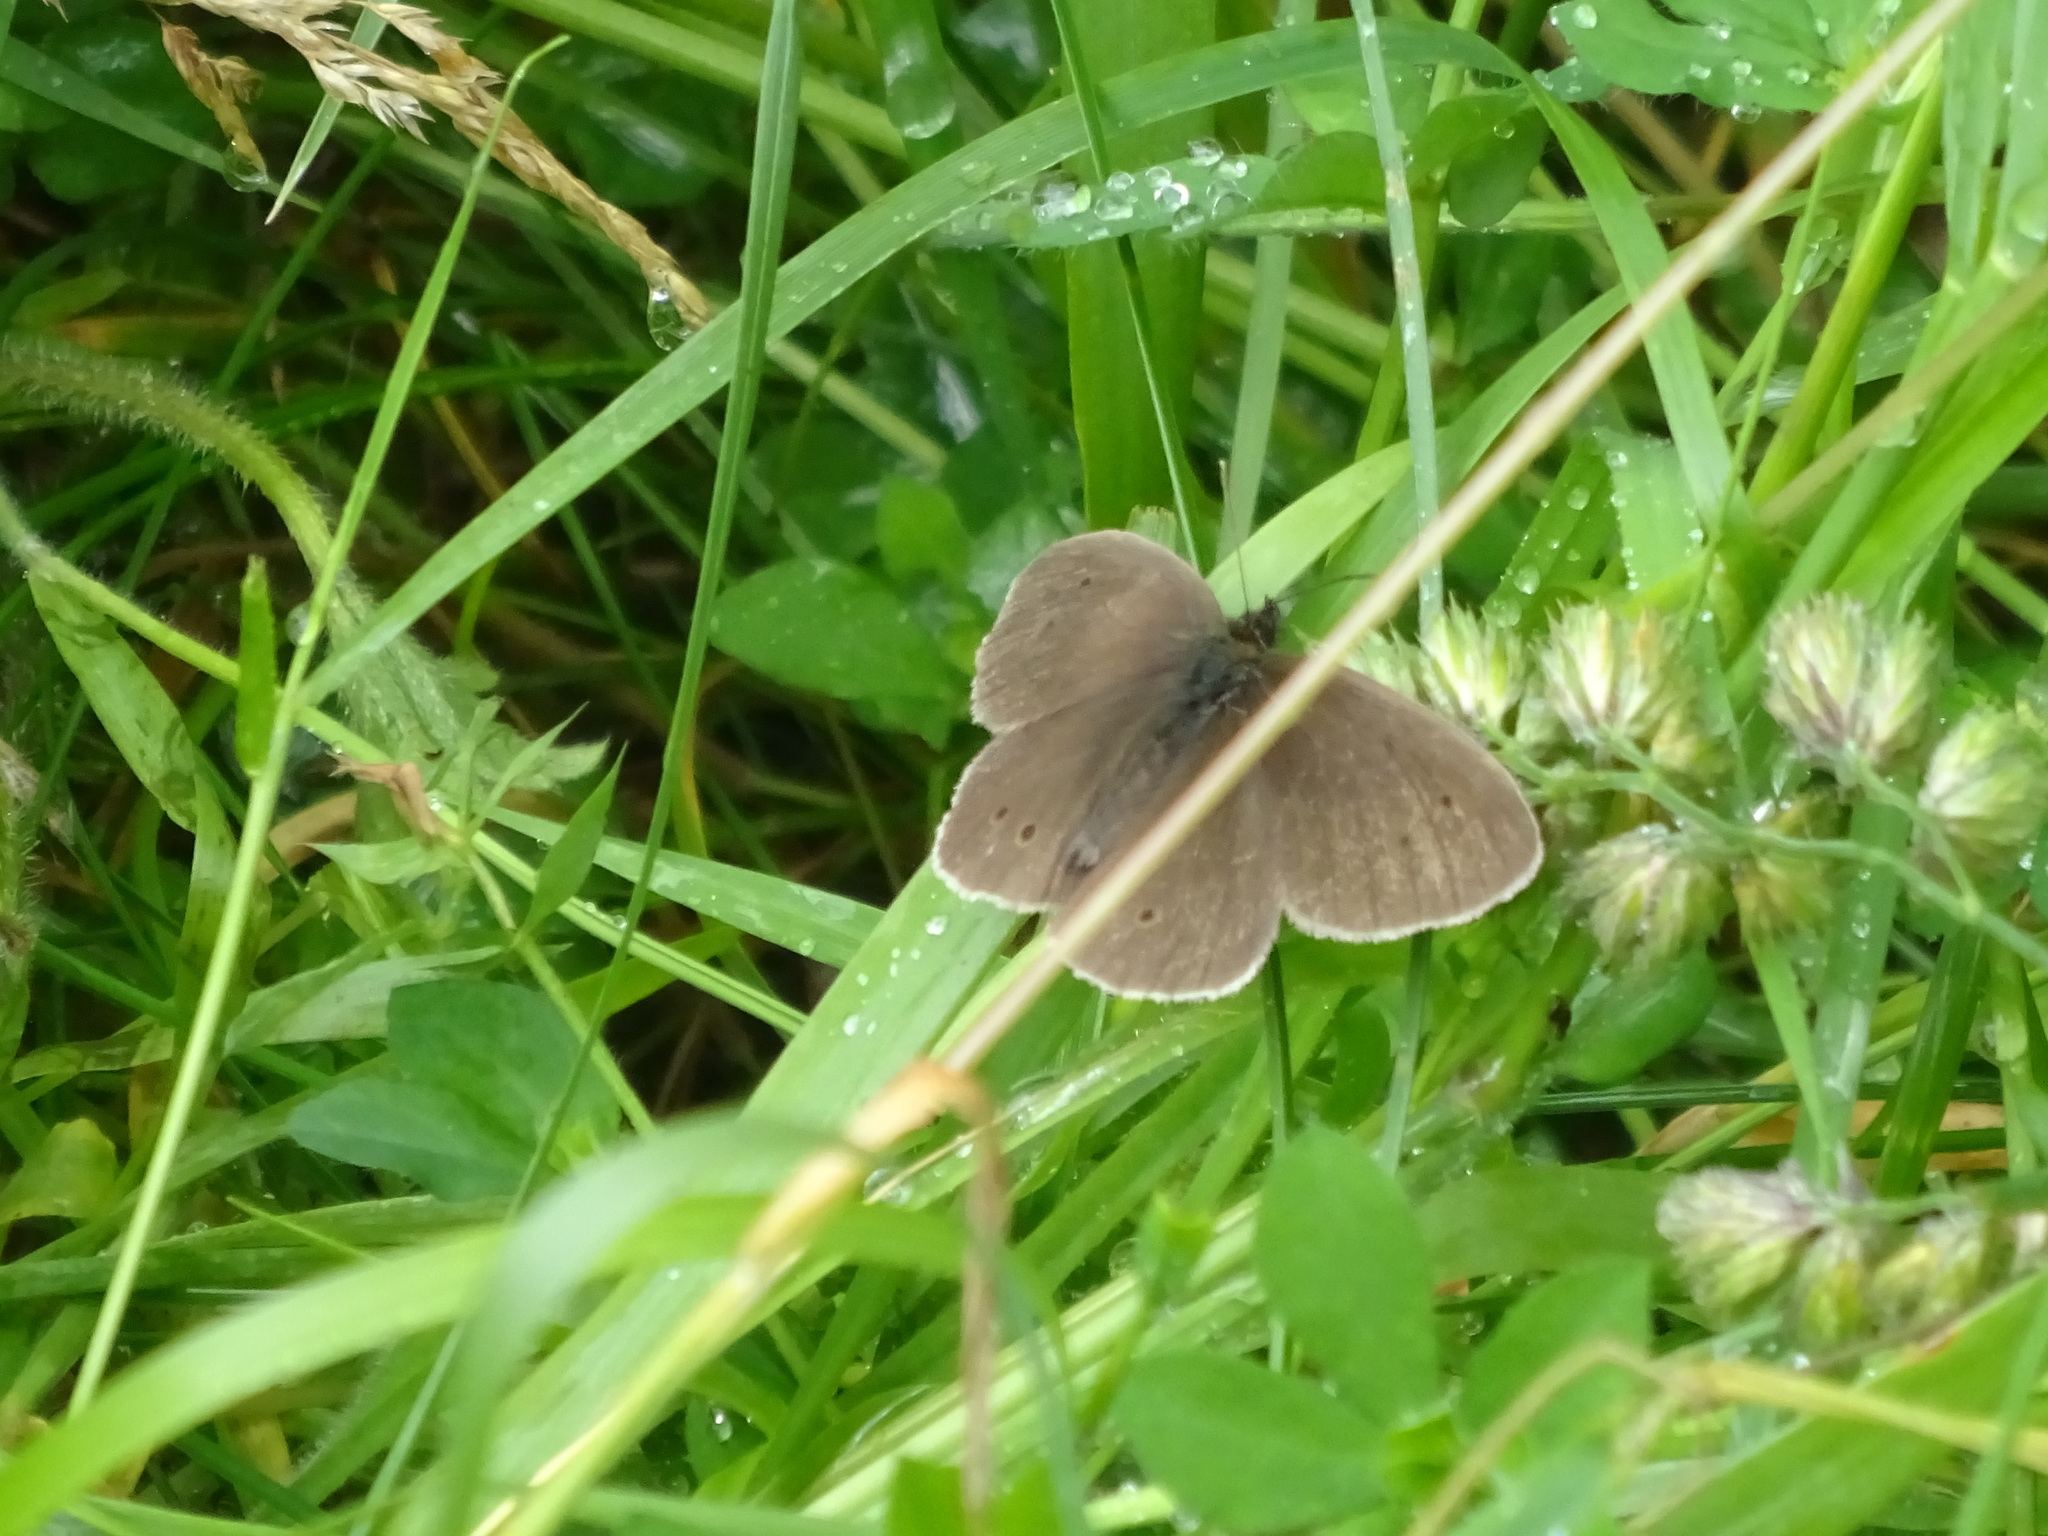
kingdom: Animalia
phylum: Arthropoda
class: Insecta
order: Lepidoptera
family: Nymphalidae
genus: Aphantopus
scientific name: Aphantopus hyperantus
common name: Ringlet
